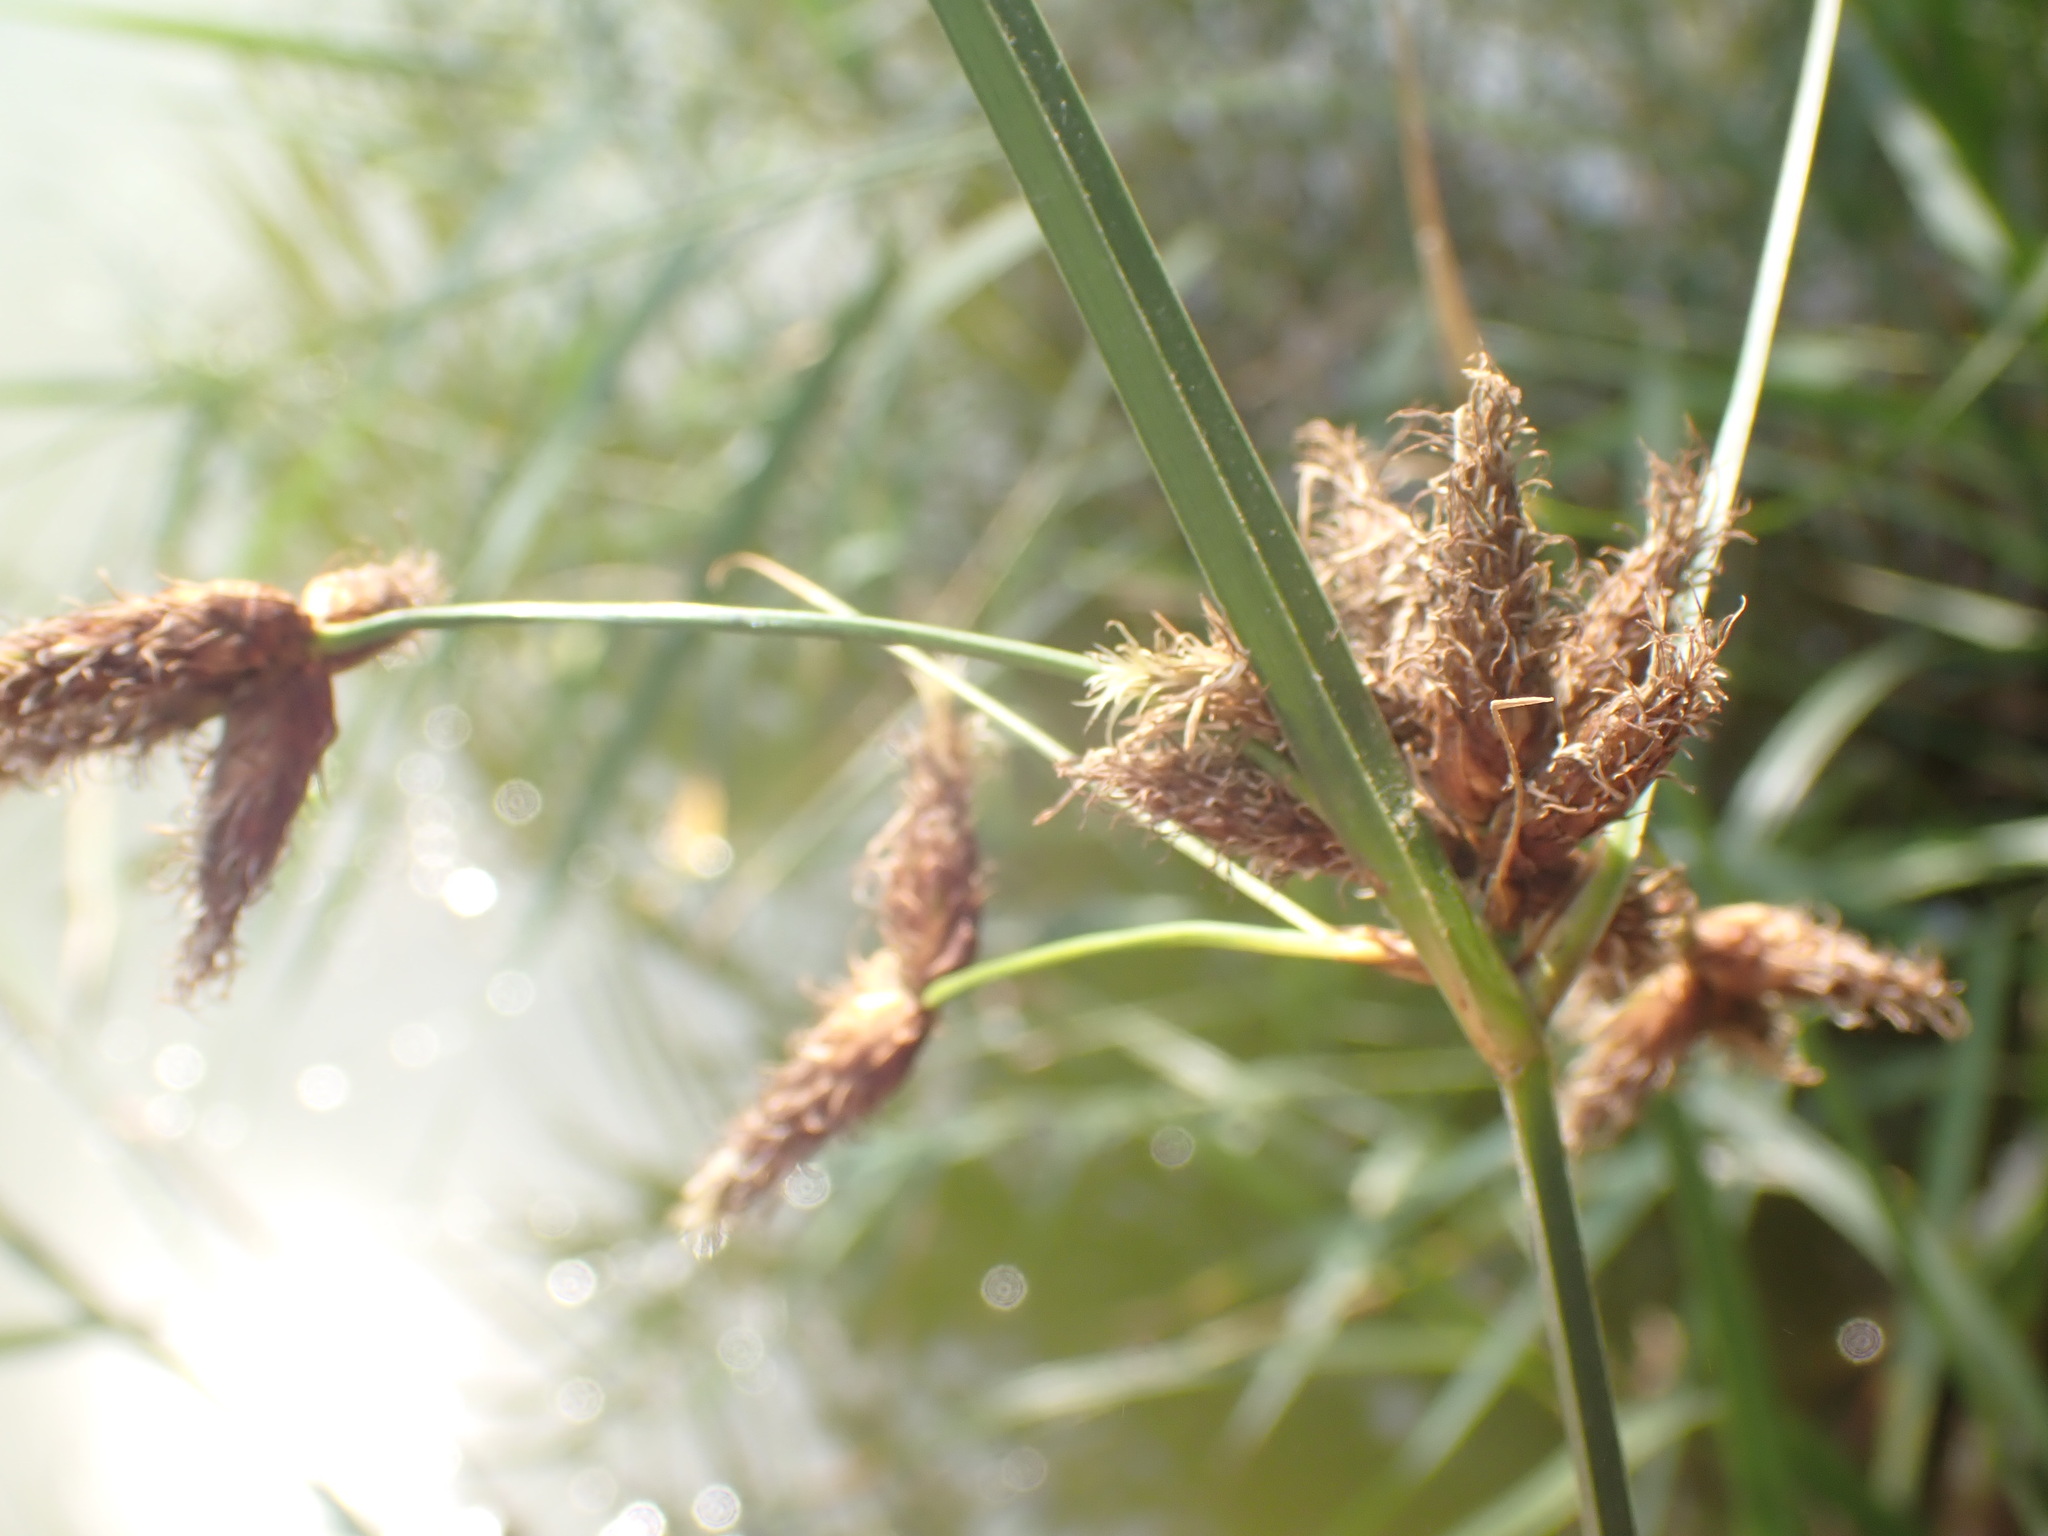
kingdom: Plantae
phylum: Tracheophyta
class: Liliopsida
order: Poales
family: Cyperaceae
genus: Bolboschoenus
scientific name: Bolboschoenus maritimus
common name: Sea club-rush
